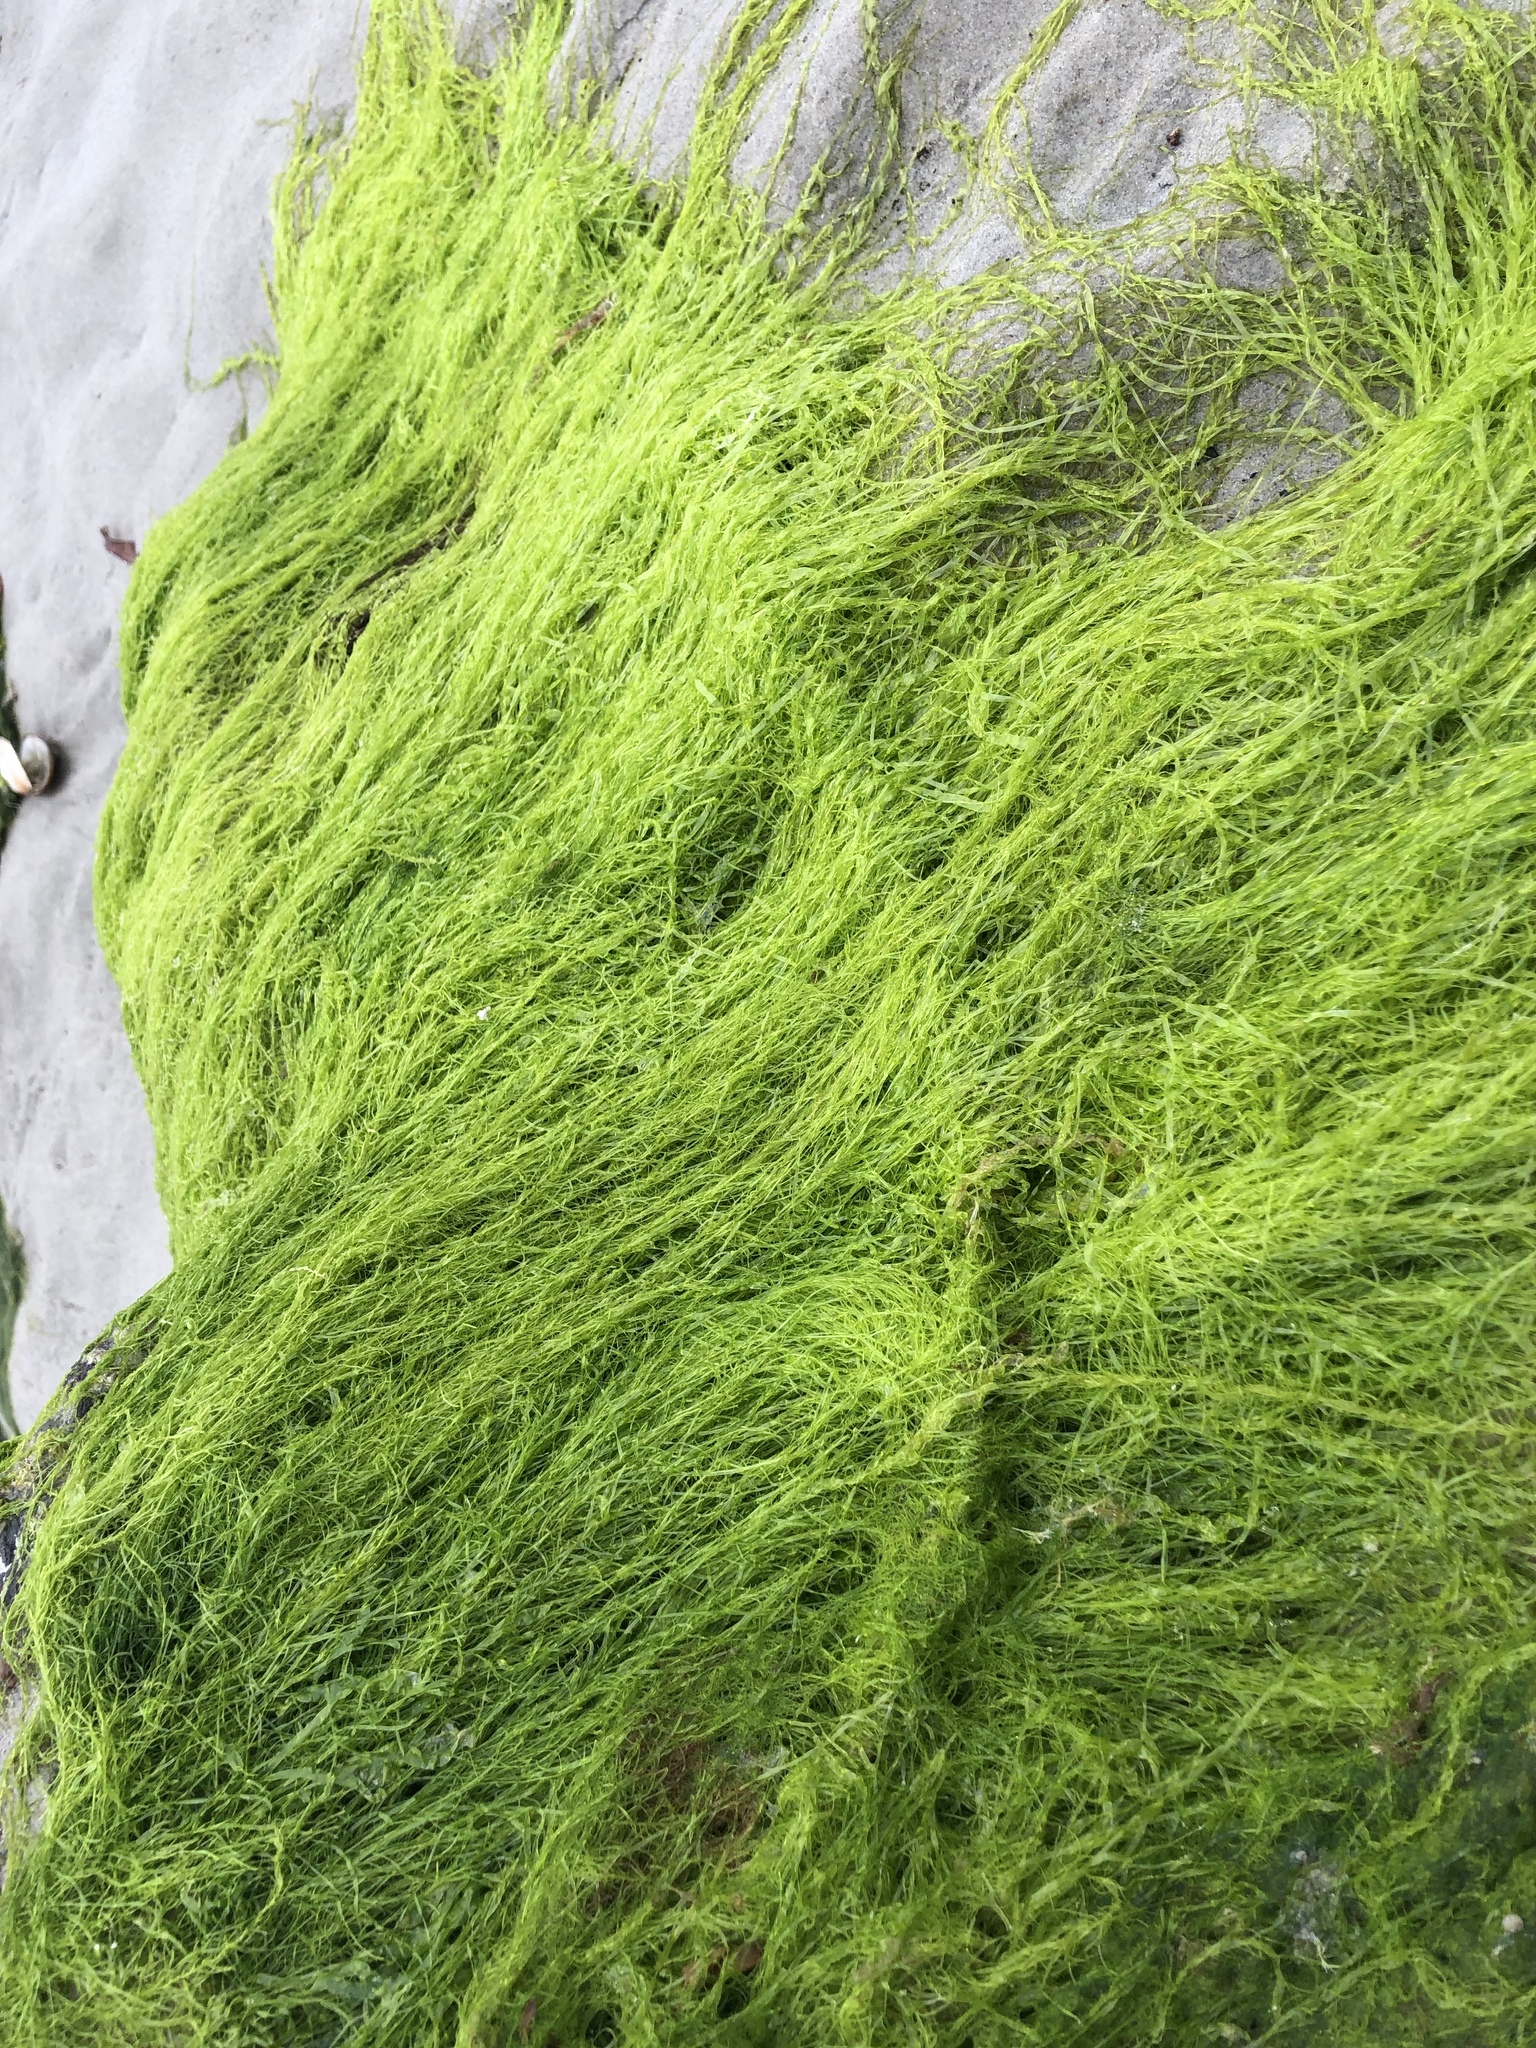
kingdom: Plantae
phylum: Chlorophyta
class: Ulvophyceae
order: Ulvales
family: Ulvaceae
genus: Ulva
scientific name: Ulva intestinalis
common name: Gut weed
